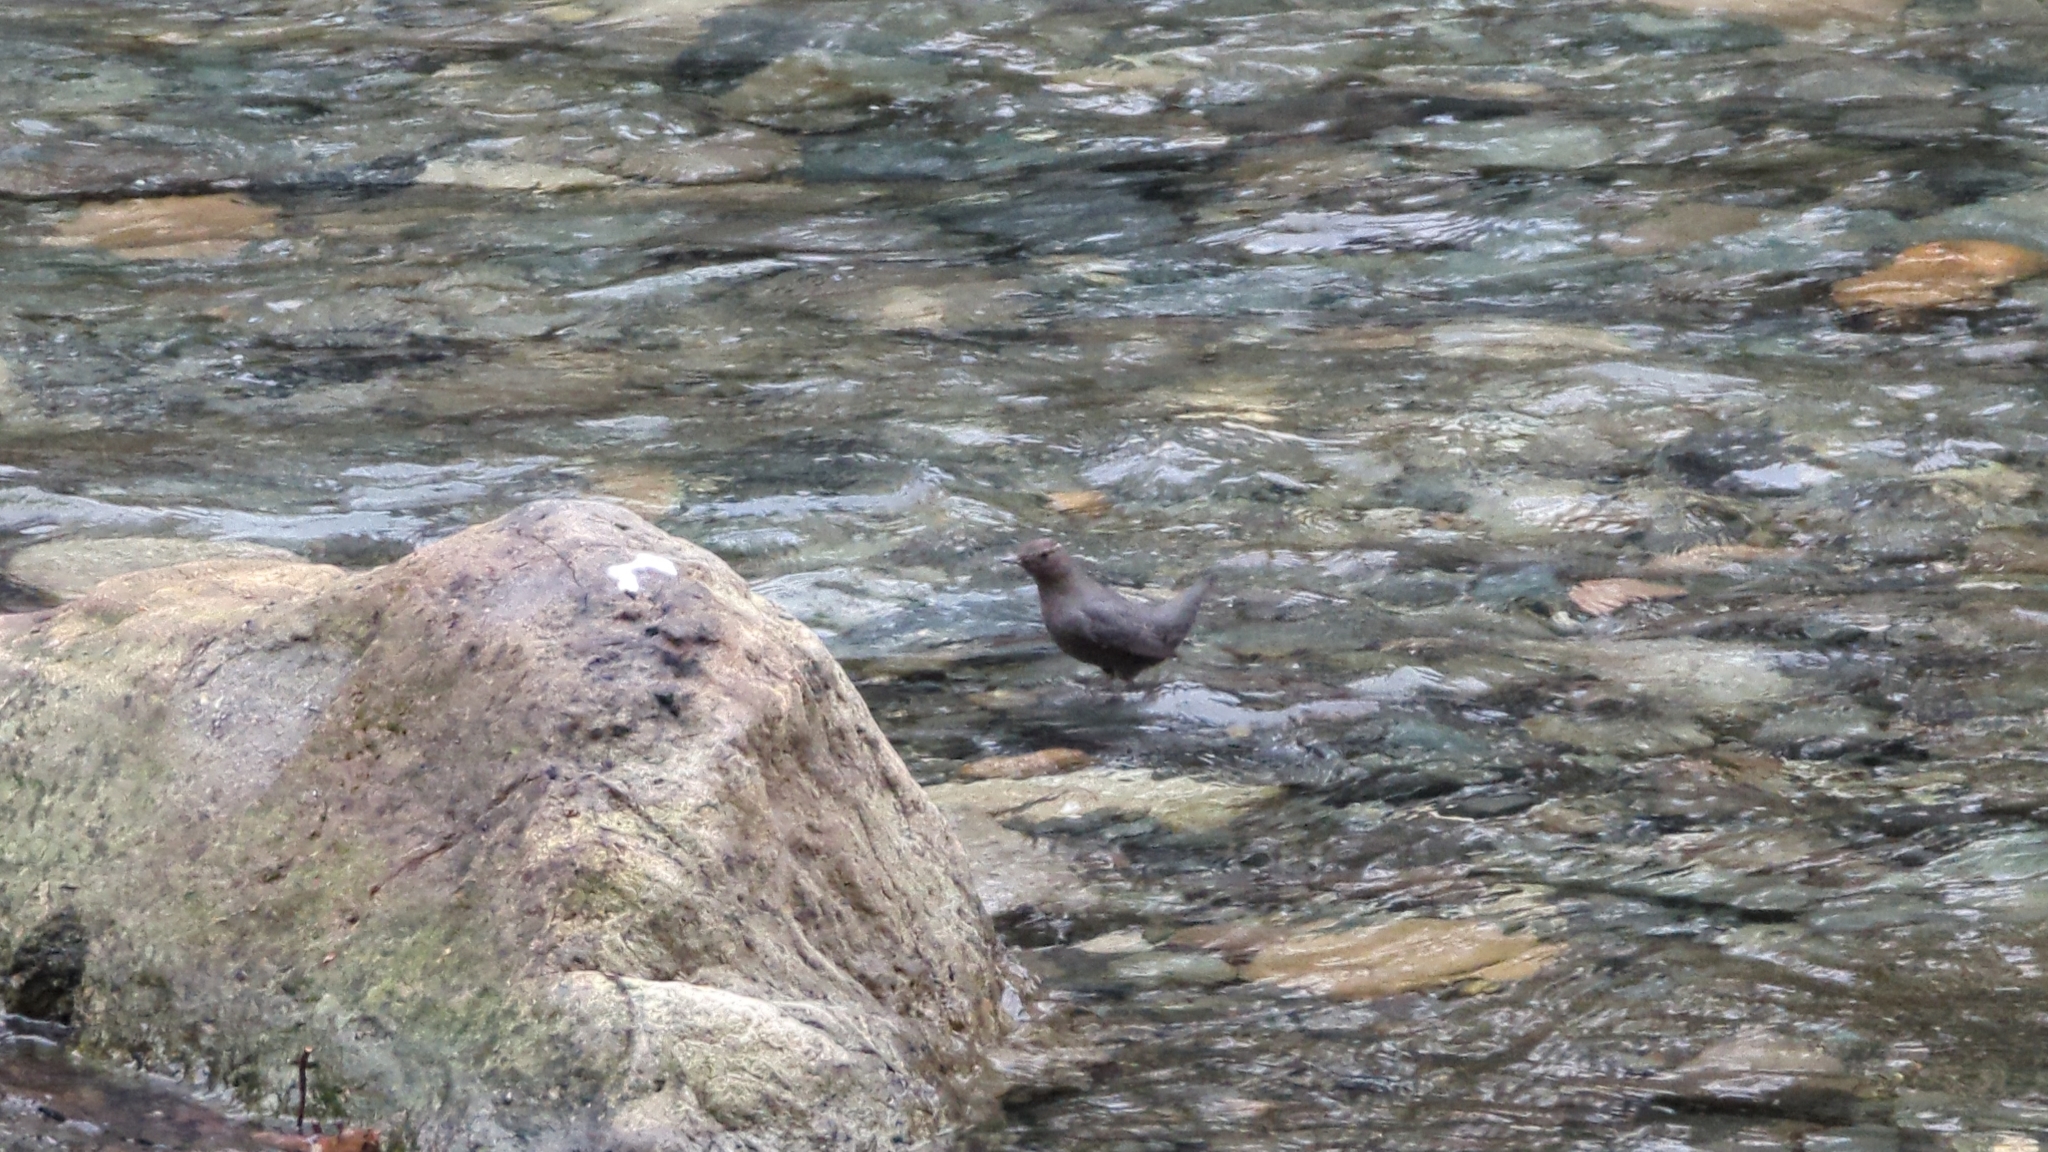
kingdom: Animalia
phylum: Chordata
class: Aves
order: Passeriformes
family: Cinclidae
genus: Cinclus
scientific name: Cinclus mexicanus
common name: American dipper
